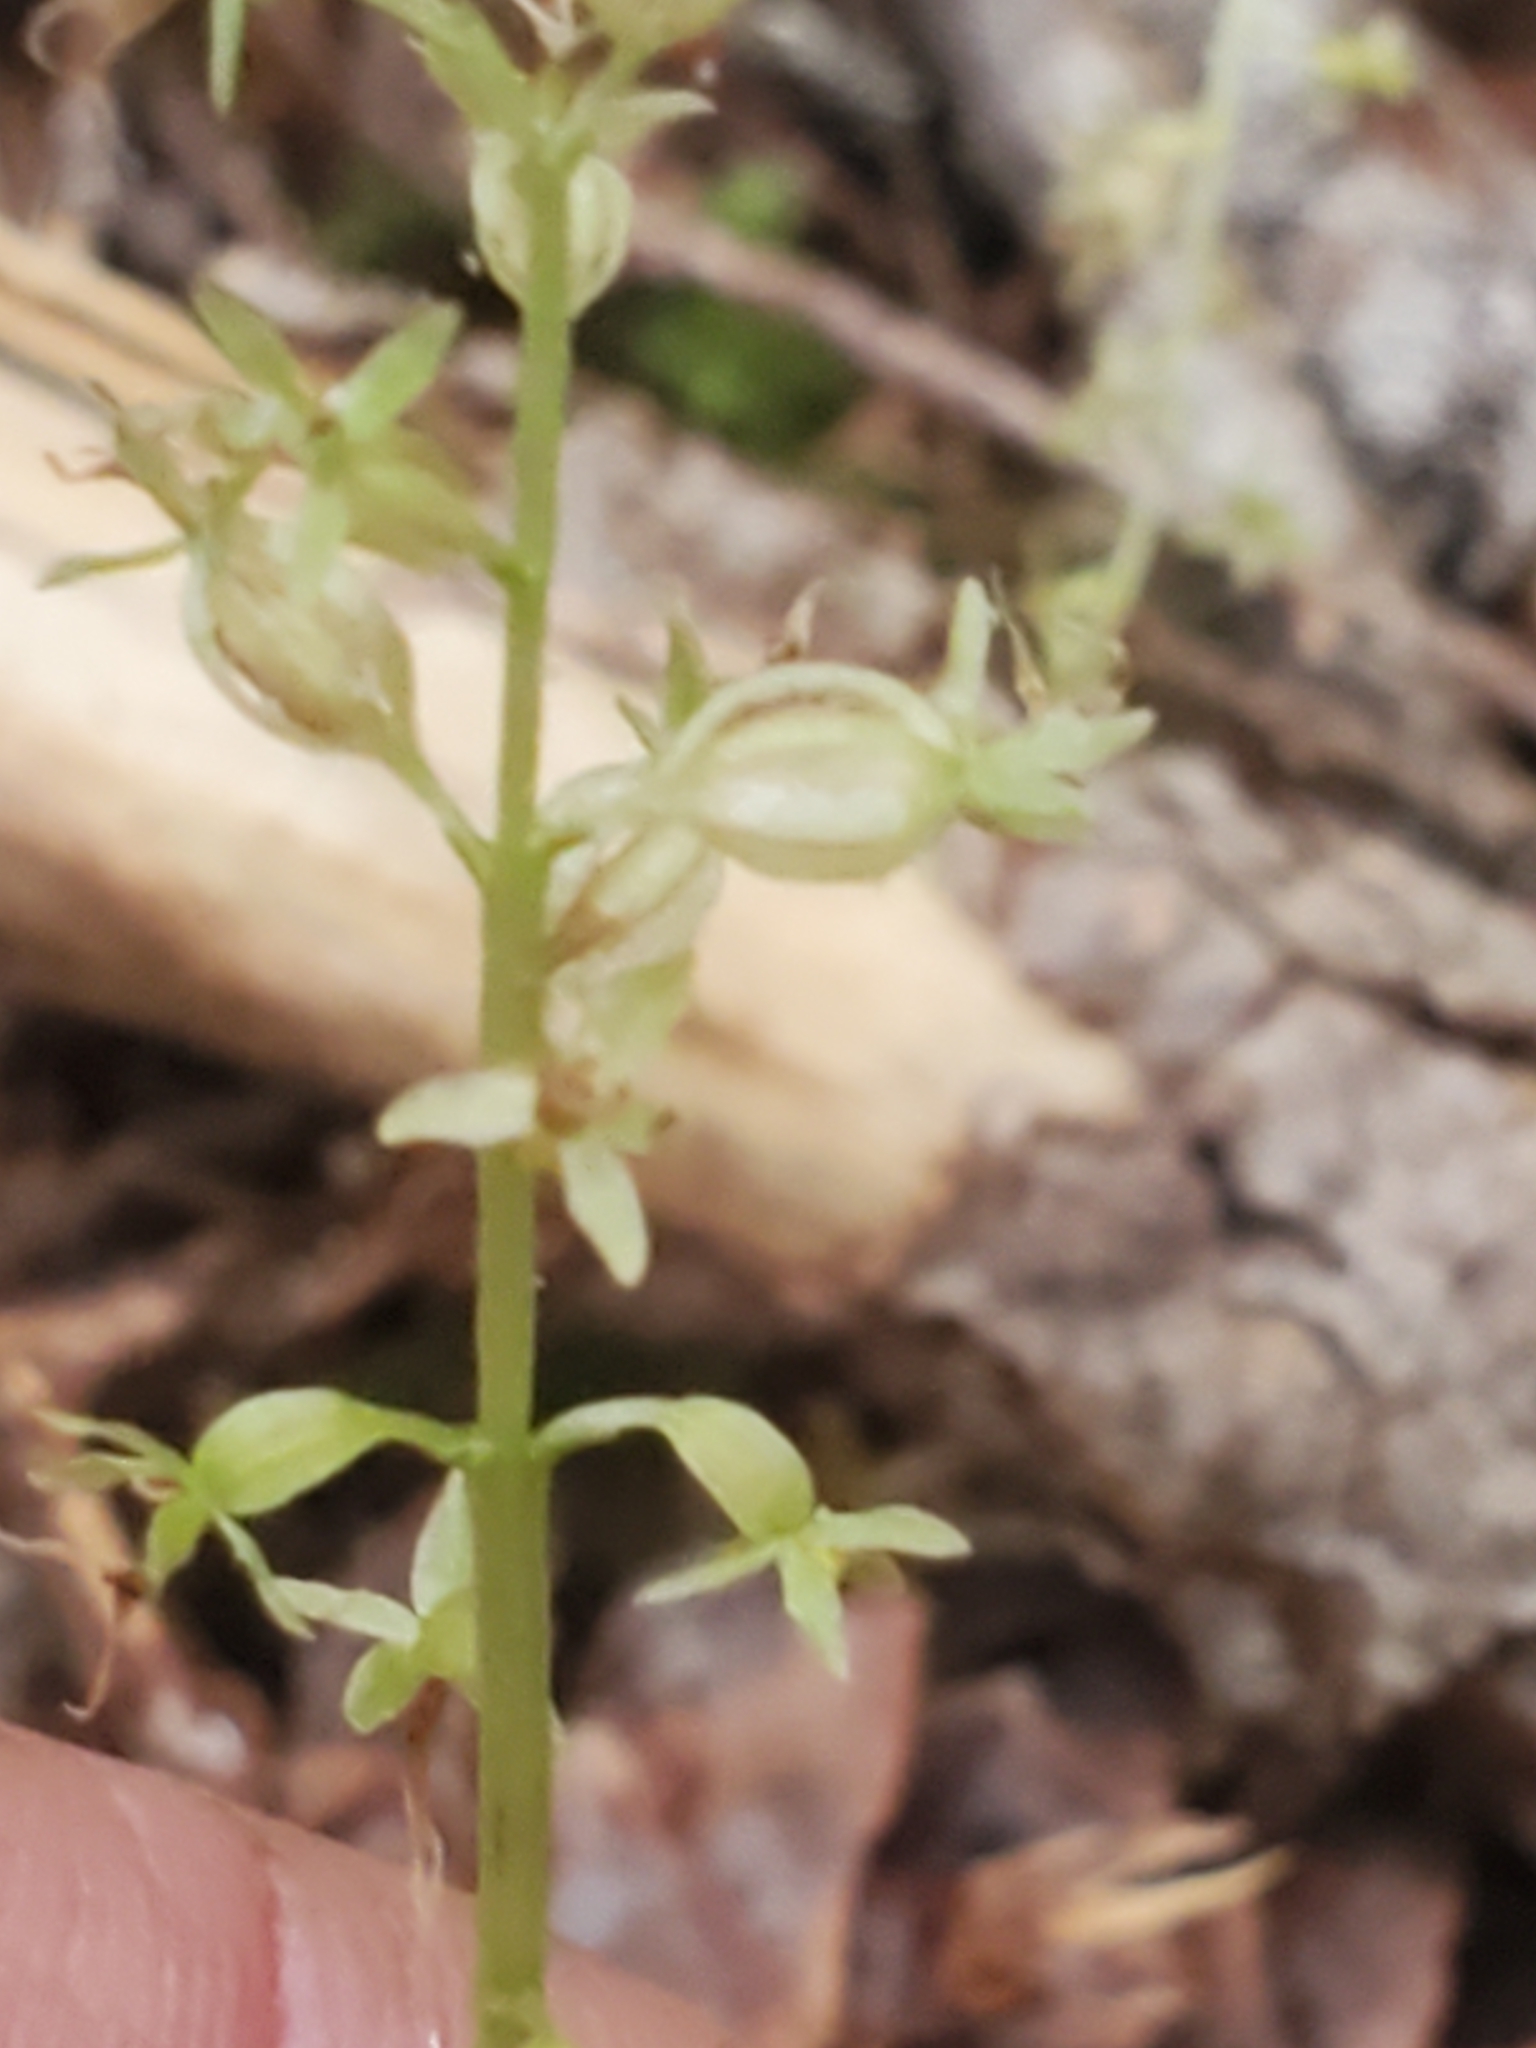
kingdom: Plantae
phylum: Tracheophyta
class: Liliopsida
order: Asparagales
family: Orchidaceae
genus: Neottia
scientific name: Neottia cordata
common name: Lesser twayblade
